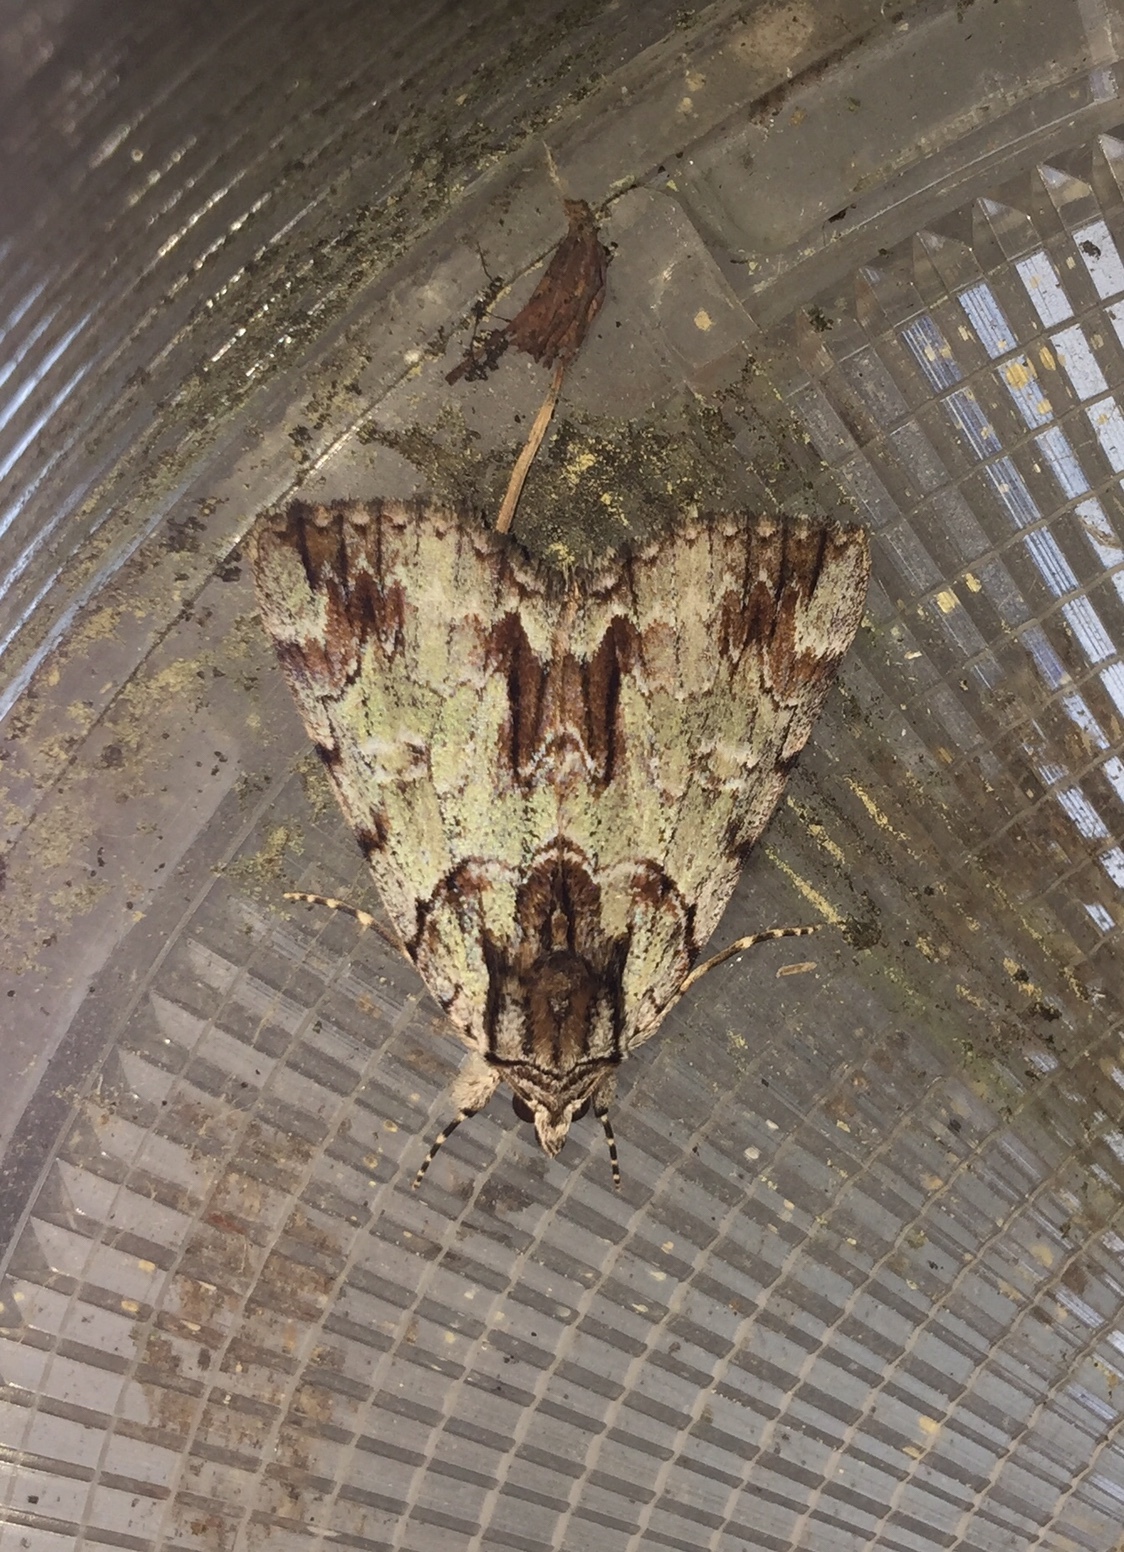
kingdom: Animalia
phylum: Arthropoda
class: Insecta
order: Lepidoptera
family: Erebidae
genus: Catocala
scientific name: Catocala praeclara
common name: Praeclara underwing
